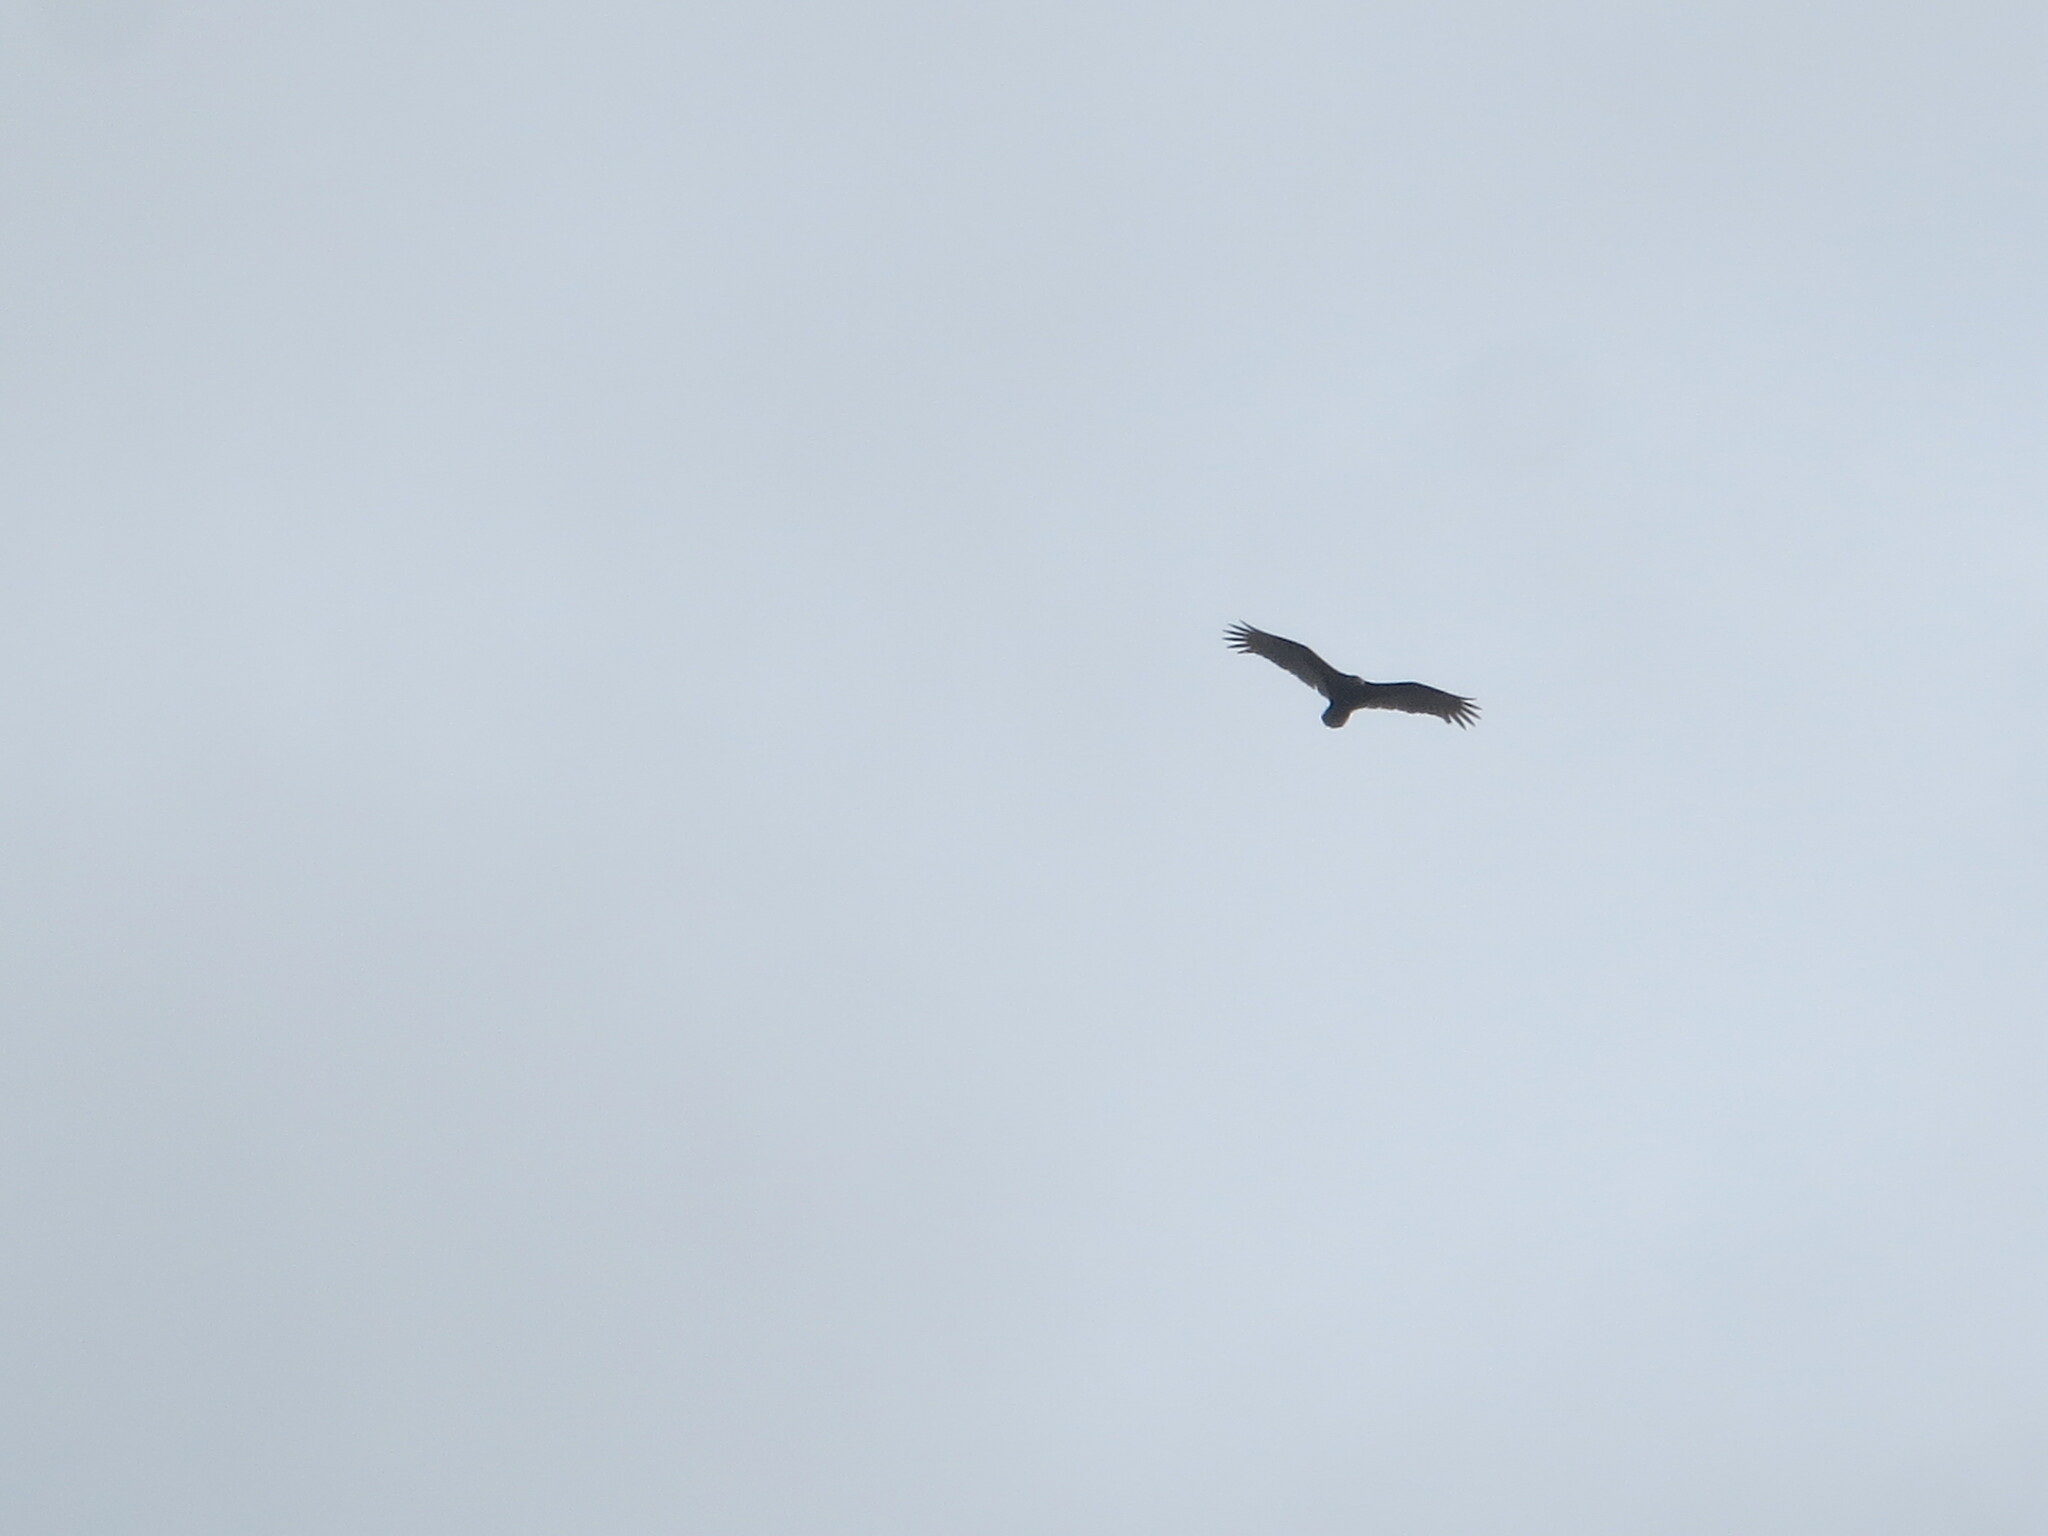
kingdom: Animalia
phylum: Chordata
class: Aves
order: Accipitriformes
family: Cathartidae
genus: Cathartes
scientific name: Cathartes aura
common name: Turkey vulture
